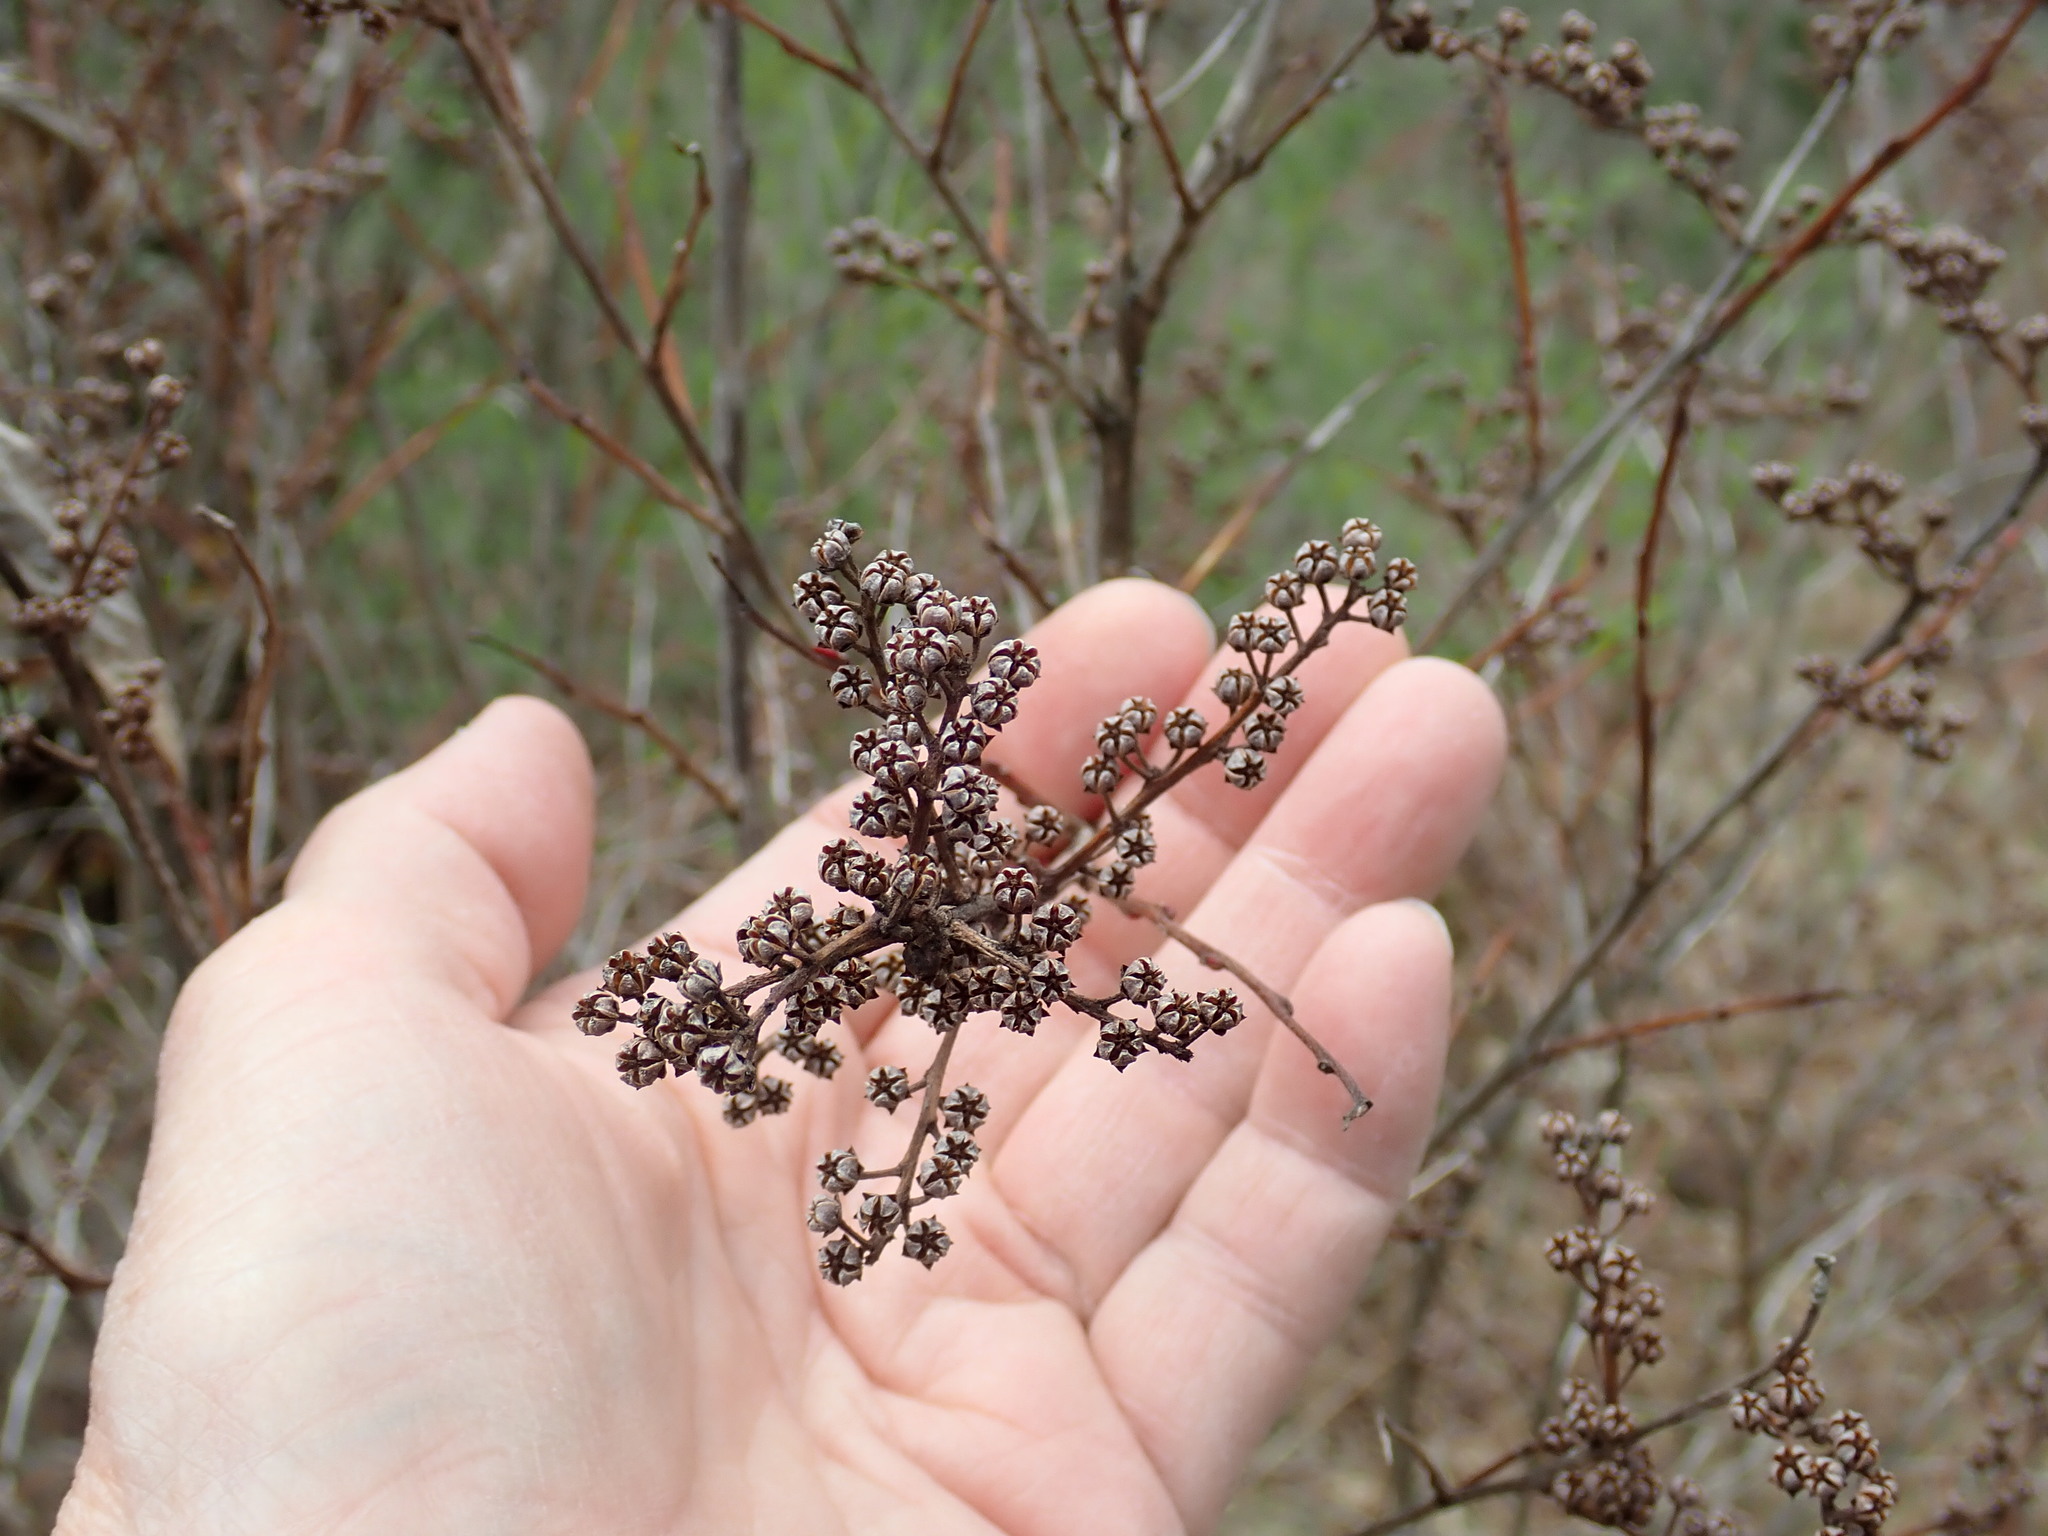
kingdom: Plantae
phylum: Tracheophyta
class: Magnoliopsida
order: Ericales
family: Ericaceae
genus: Lyonia
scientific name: Lyonia ligustrina
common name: Maleberry
